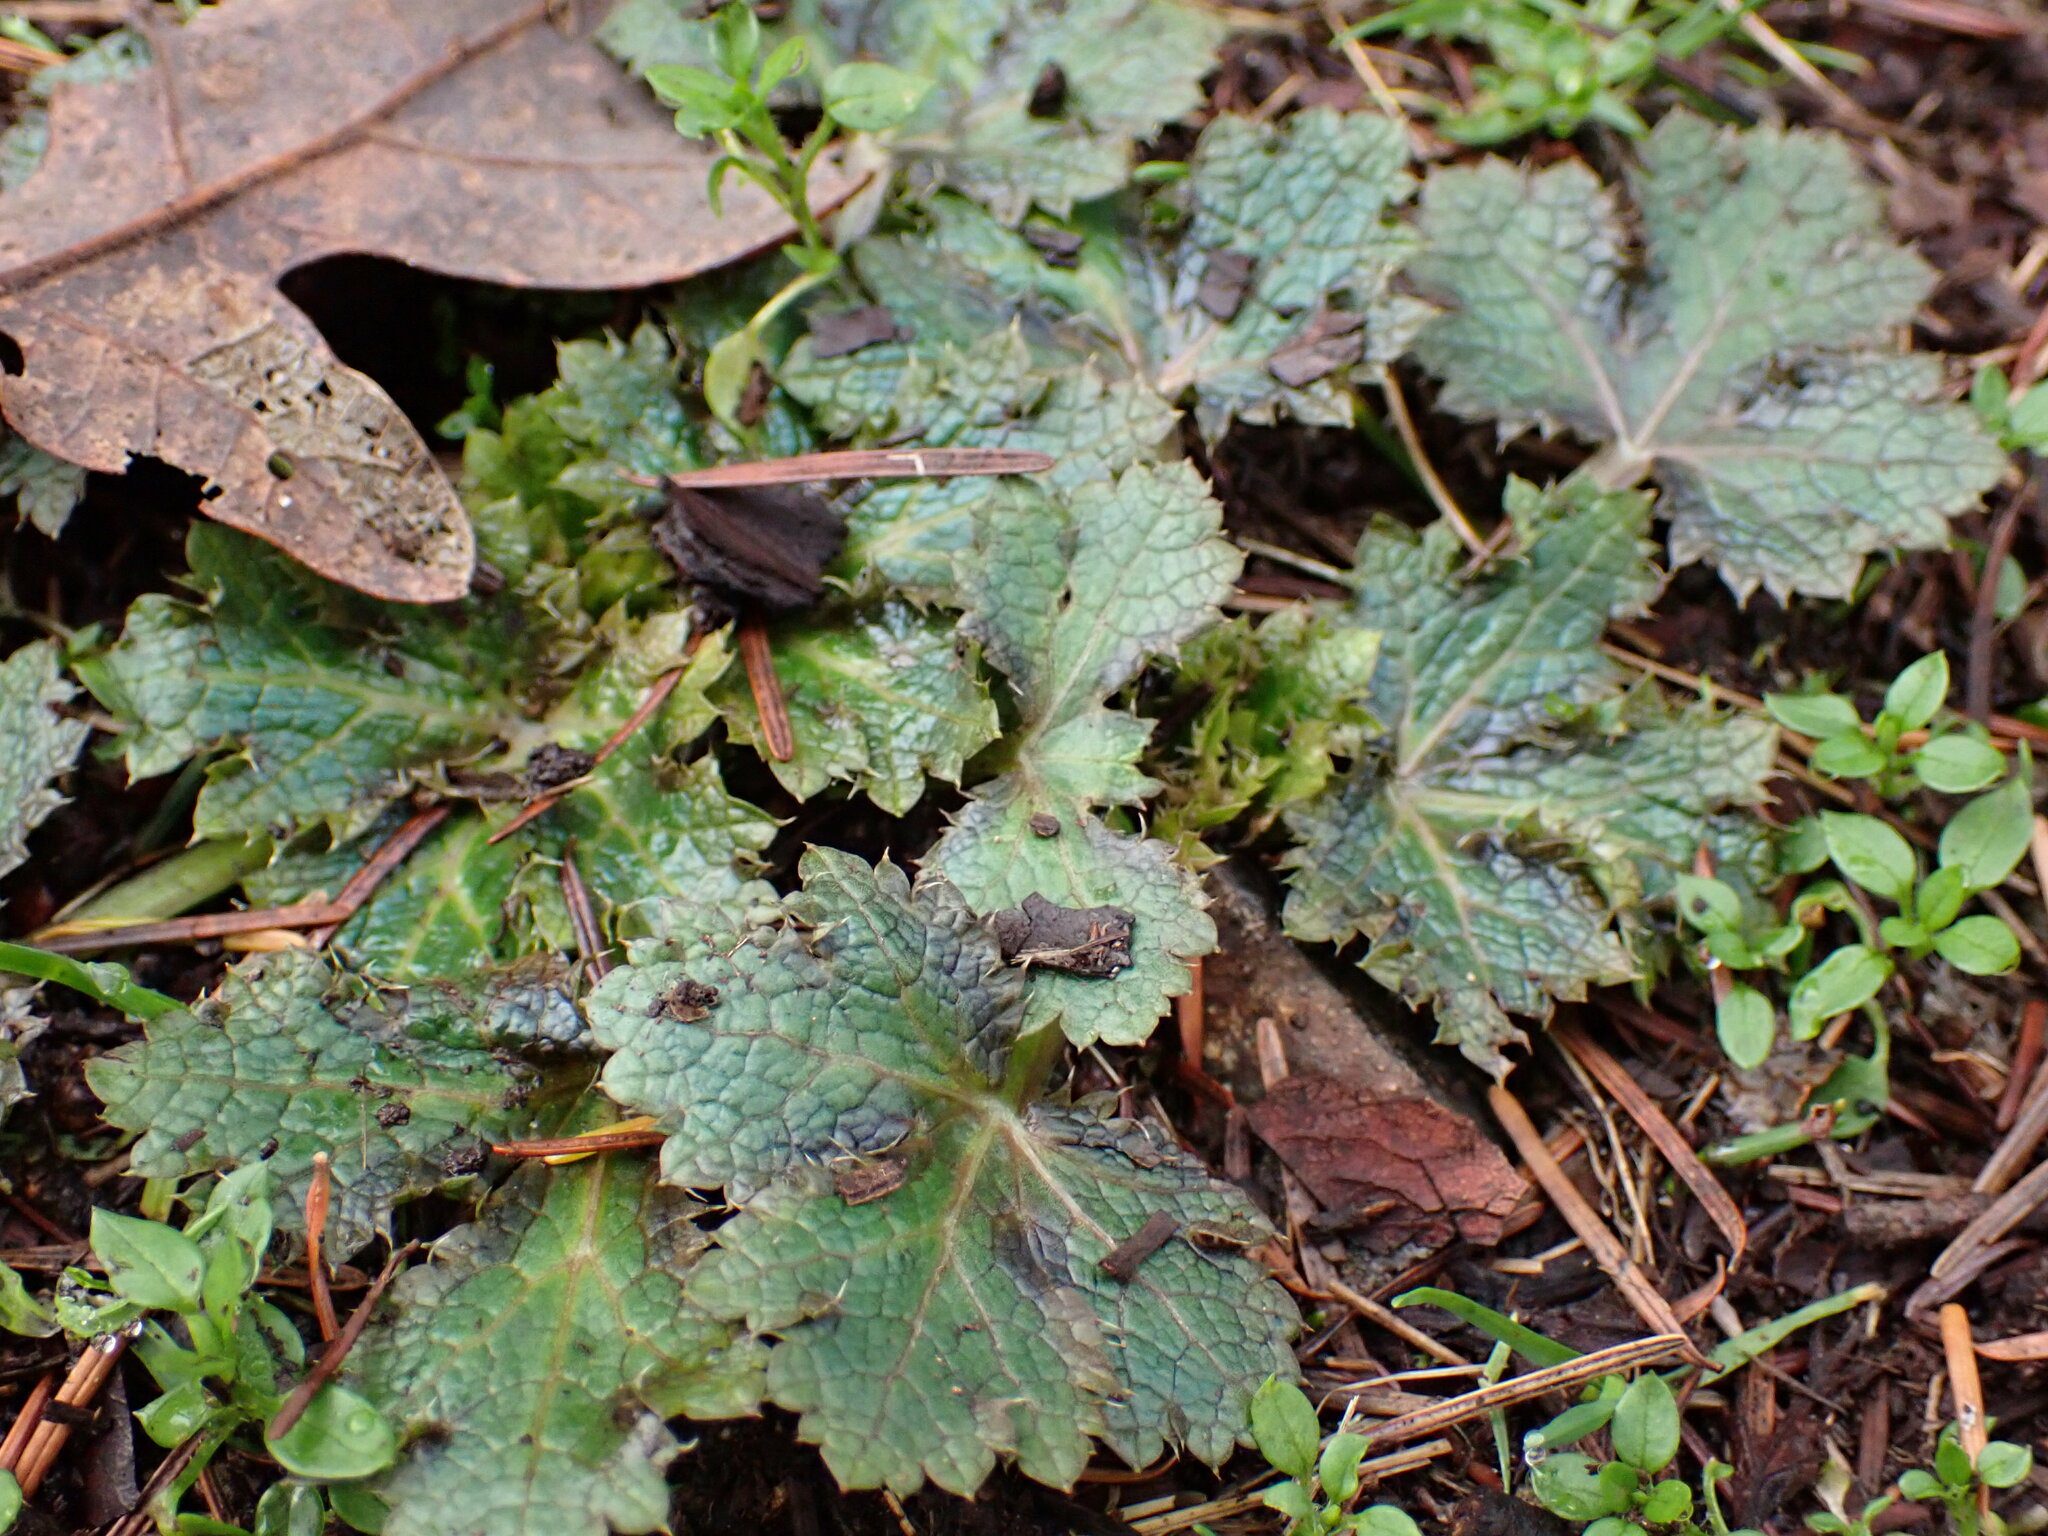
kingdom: Plantae
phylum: Tracheophyta
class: Magnoliopsida
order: Apiales
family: Apiaceae
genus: Sanicula
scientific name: Sanicula crassicaulis
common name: Western snakeroot
